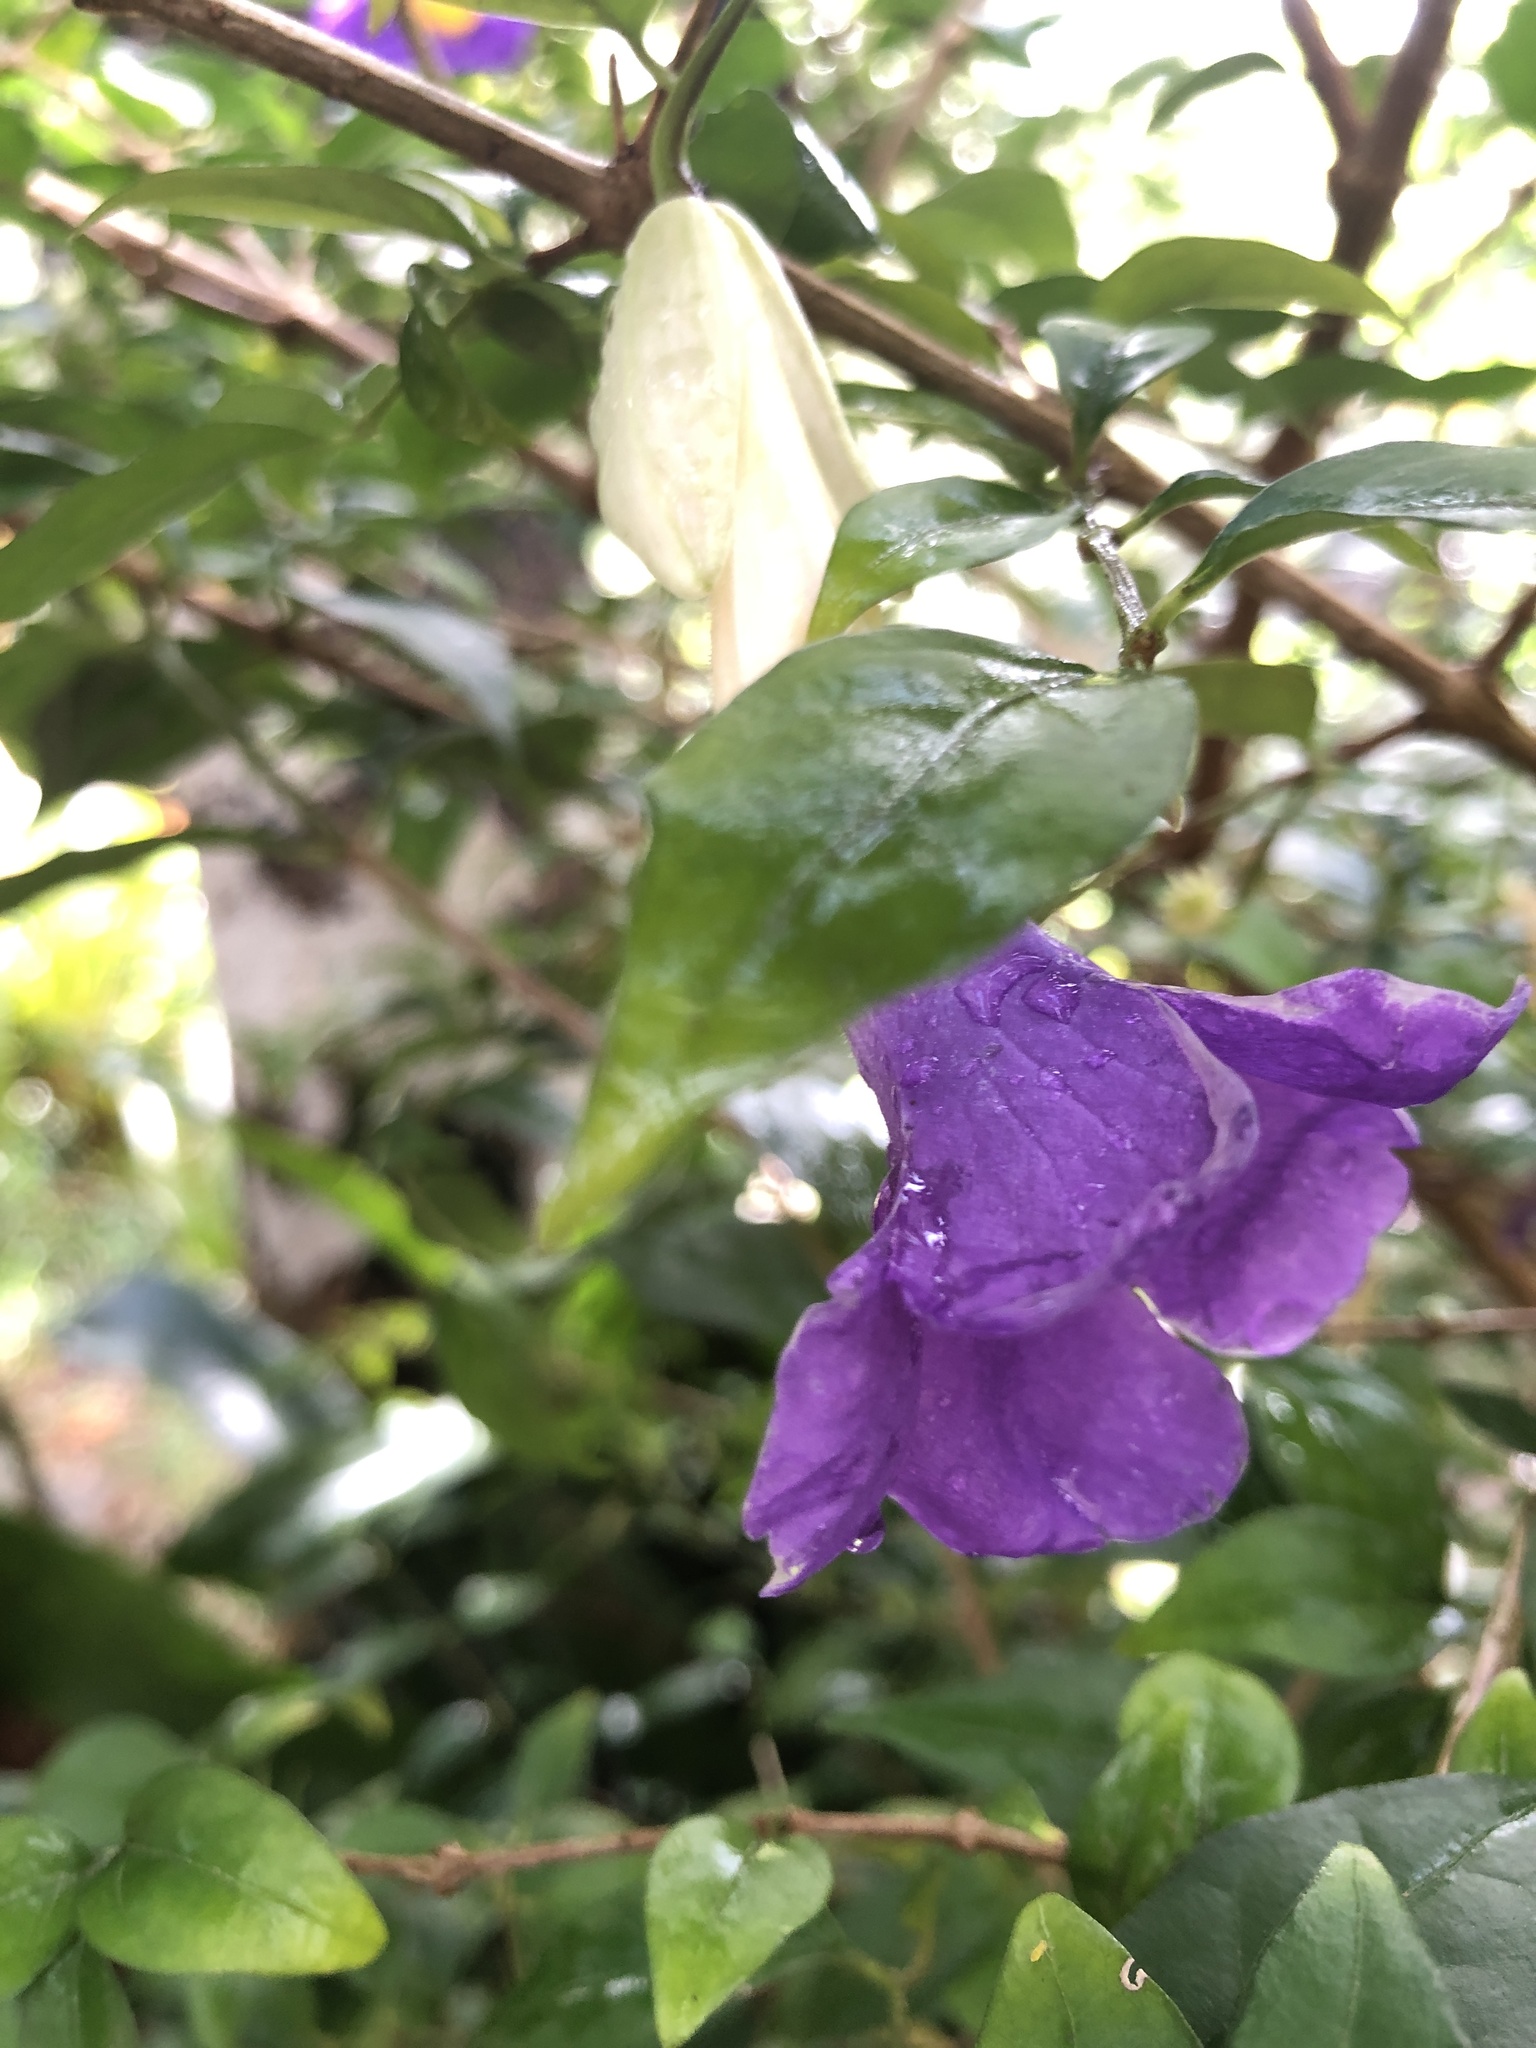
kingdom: Plantae
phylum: Tracheophyta
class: Magnoliopsida
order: Lamiales
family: Acanthaceae
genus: Thunbergia
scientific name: Thunbergia erecta
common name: Bush clockvine
